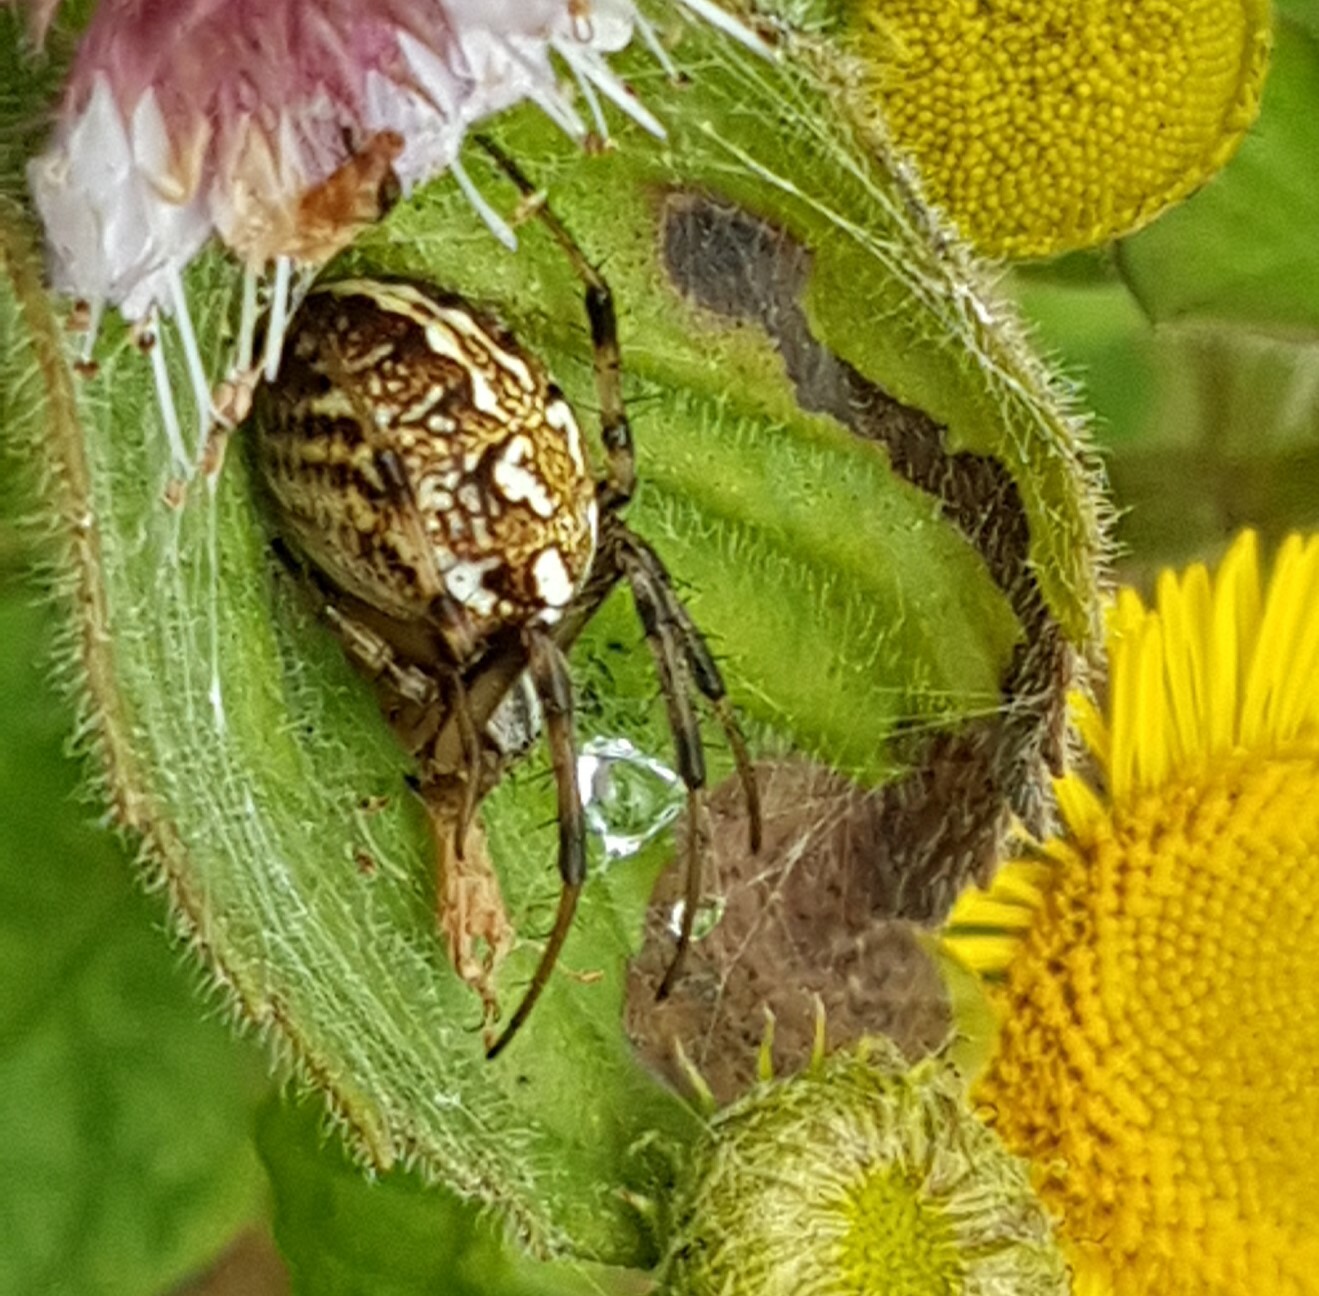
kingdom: Animalia
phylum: Arthropoda
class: Arachnida
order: Araneae
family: Araneidae
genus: Neoscona
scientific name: Neoscona adianta
